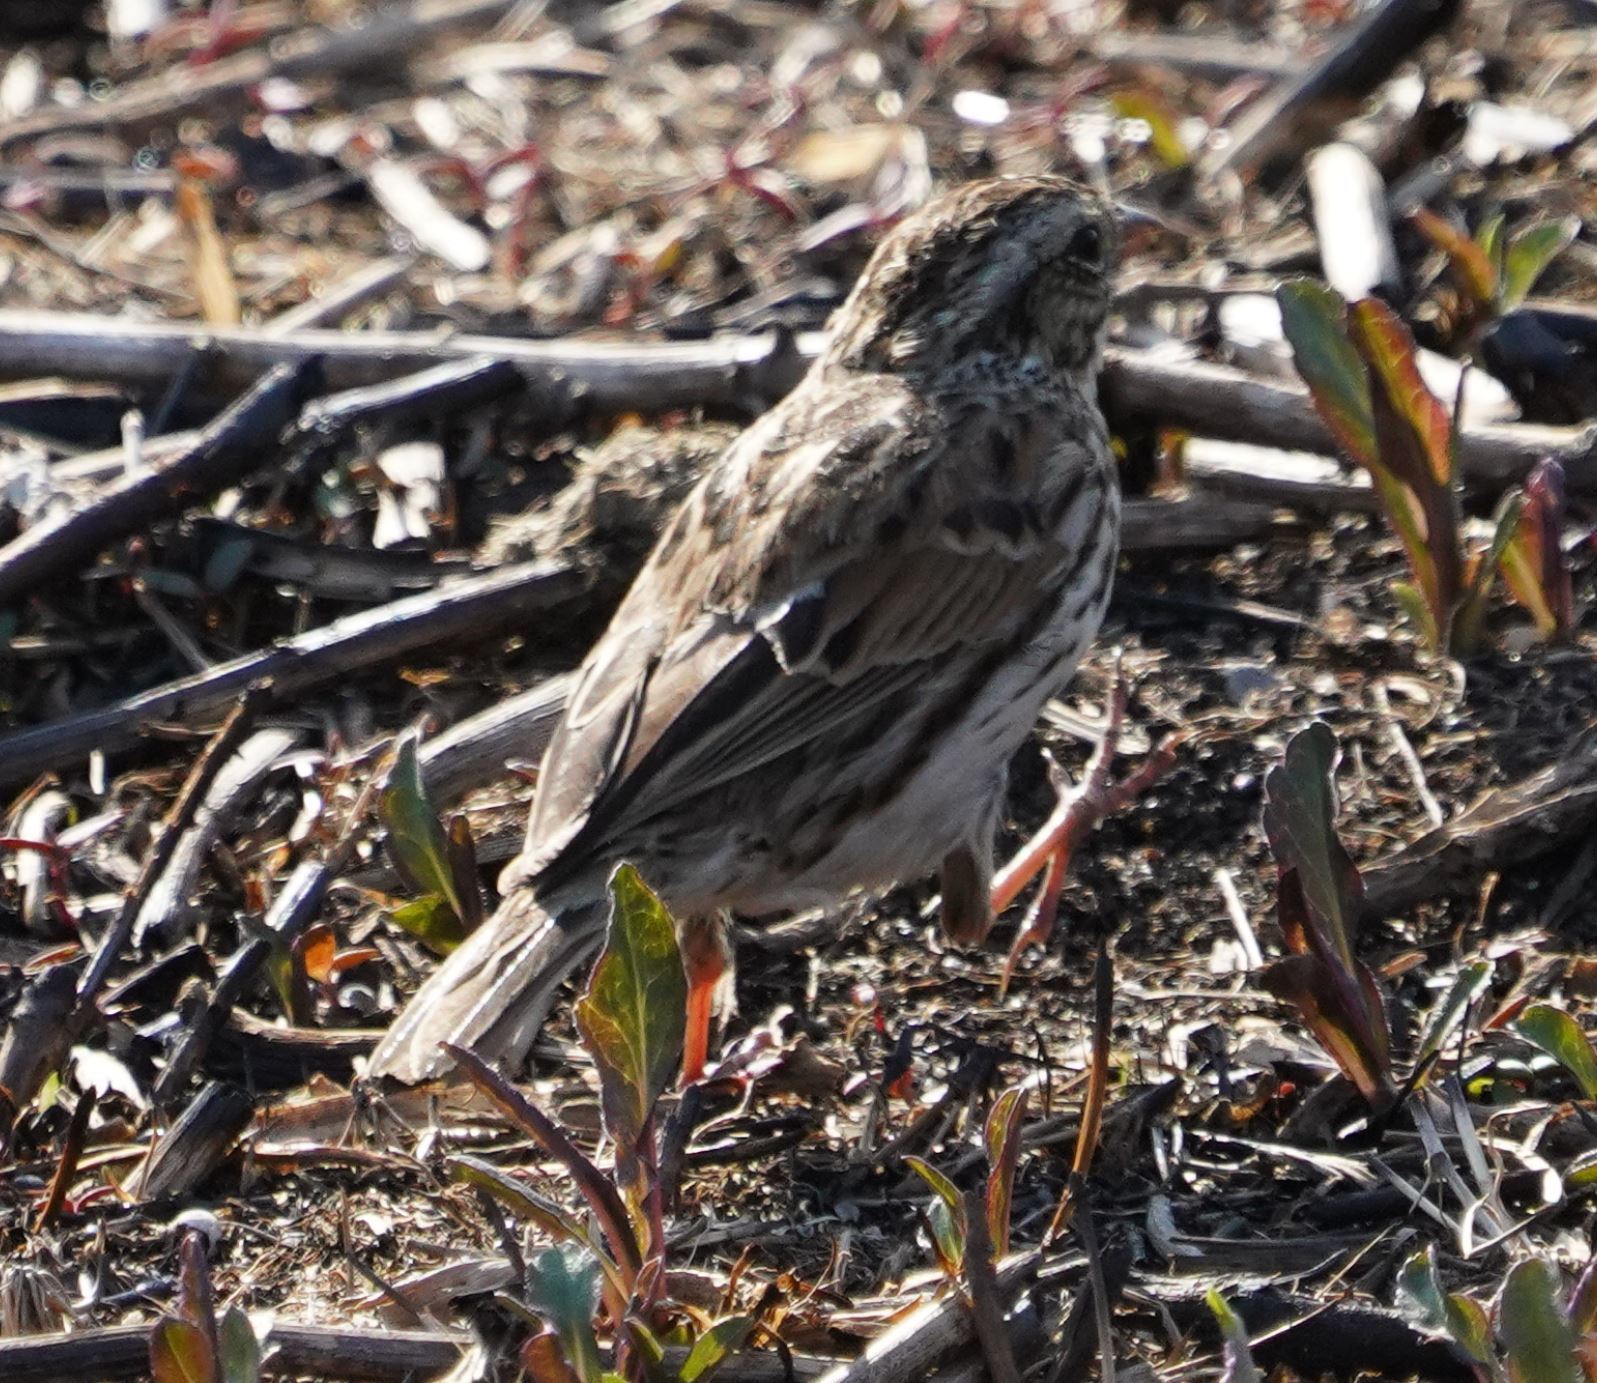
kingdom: Animalia
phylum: Chordata
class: Aves
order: Passeriformes
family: Passerellidae
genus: Passerculus
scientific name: Passerculus sandwichensis
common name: Savannah sparrow
